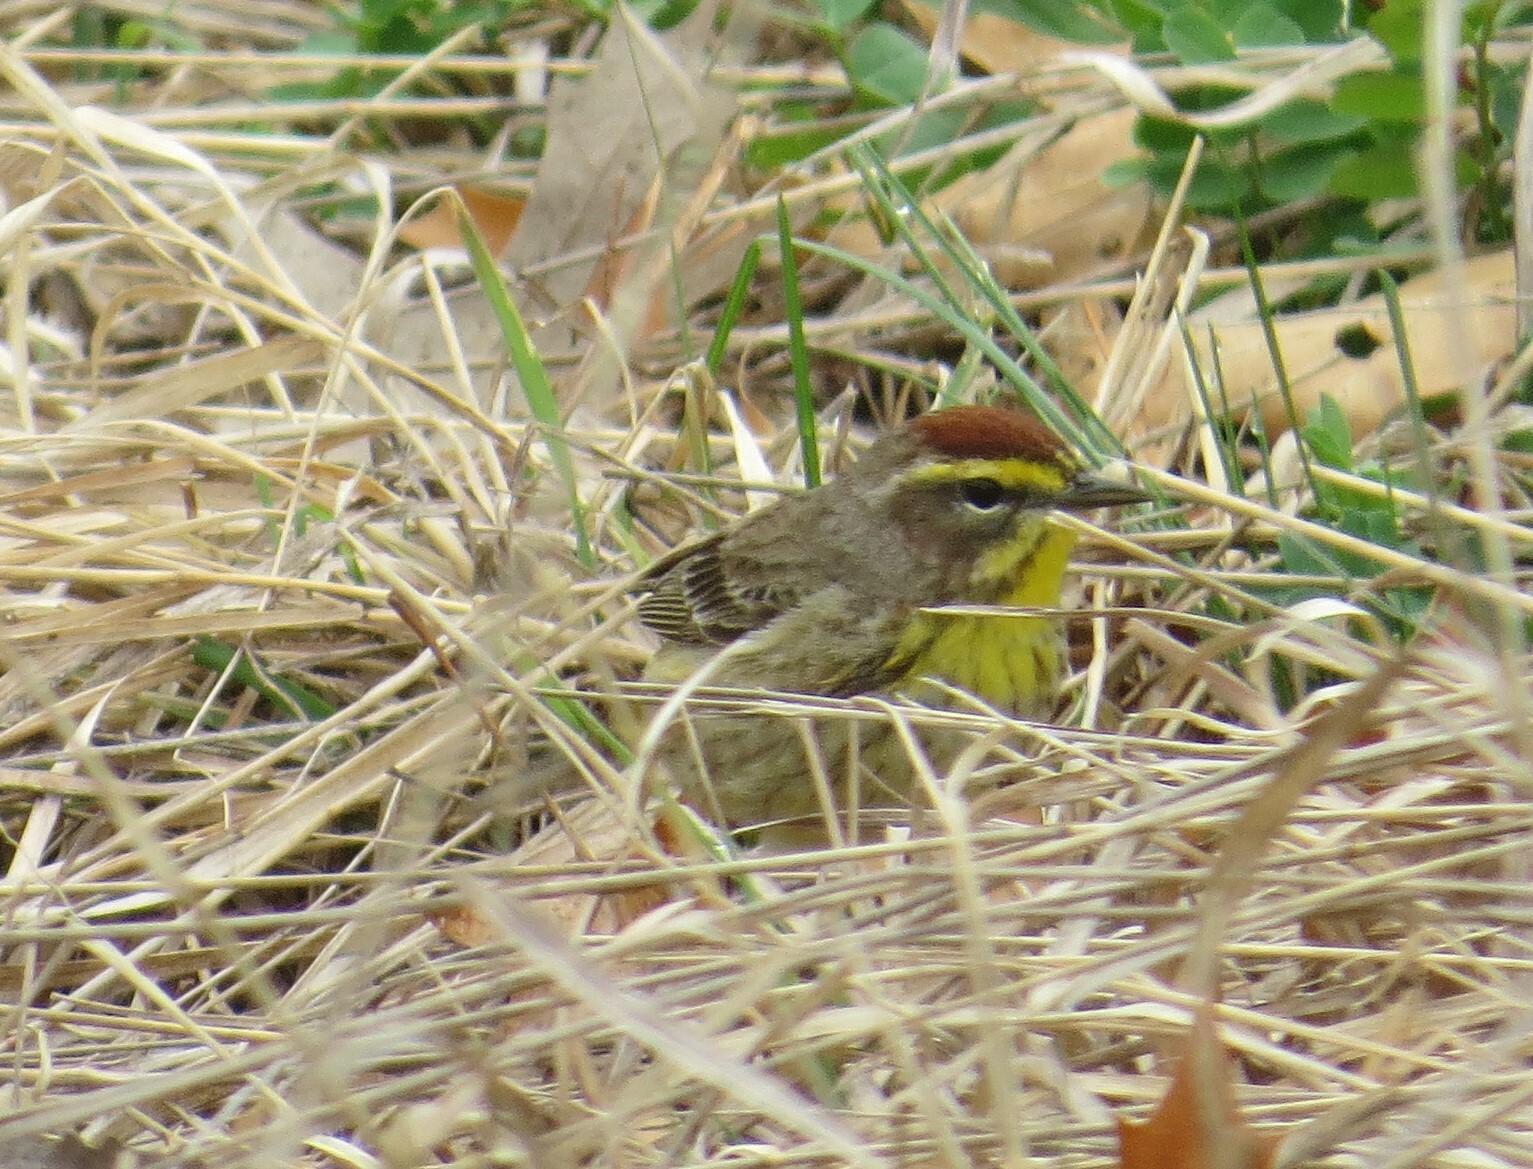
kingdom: Animalia
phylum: Chordata
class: Aves
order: Passeriformes
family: Parulidae
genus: Setophaga
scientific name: Setophaga palmarum
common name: Palm warbler
